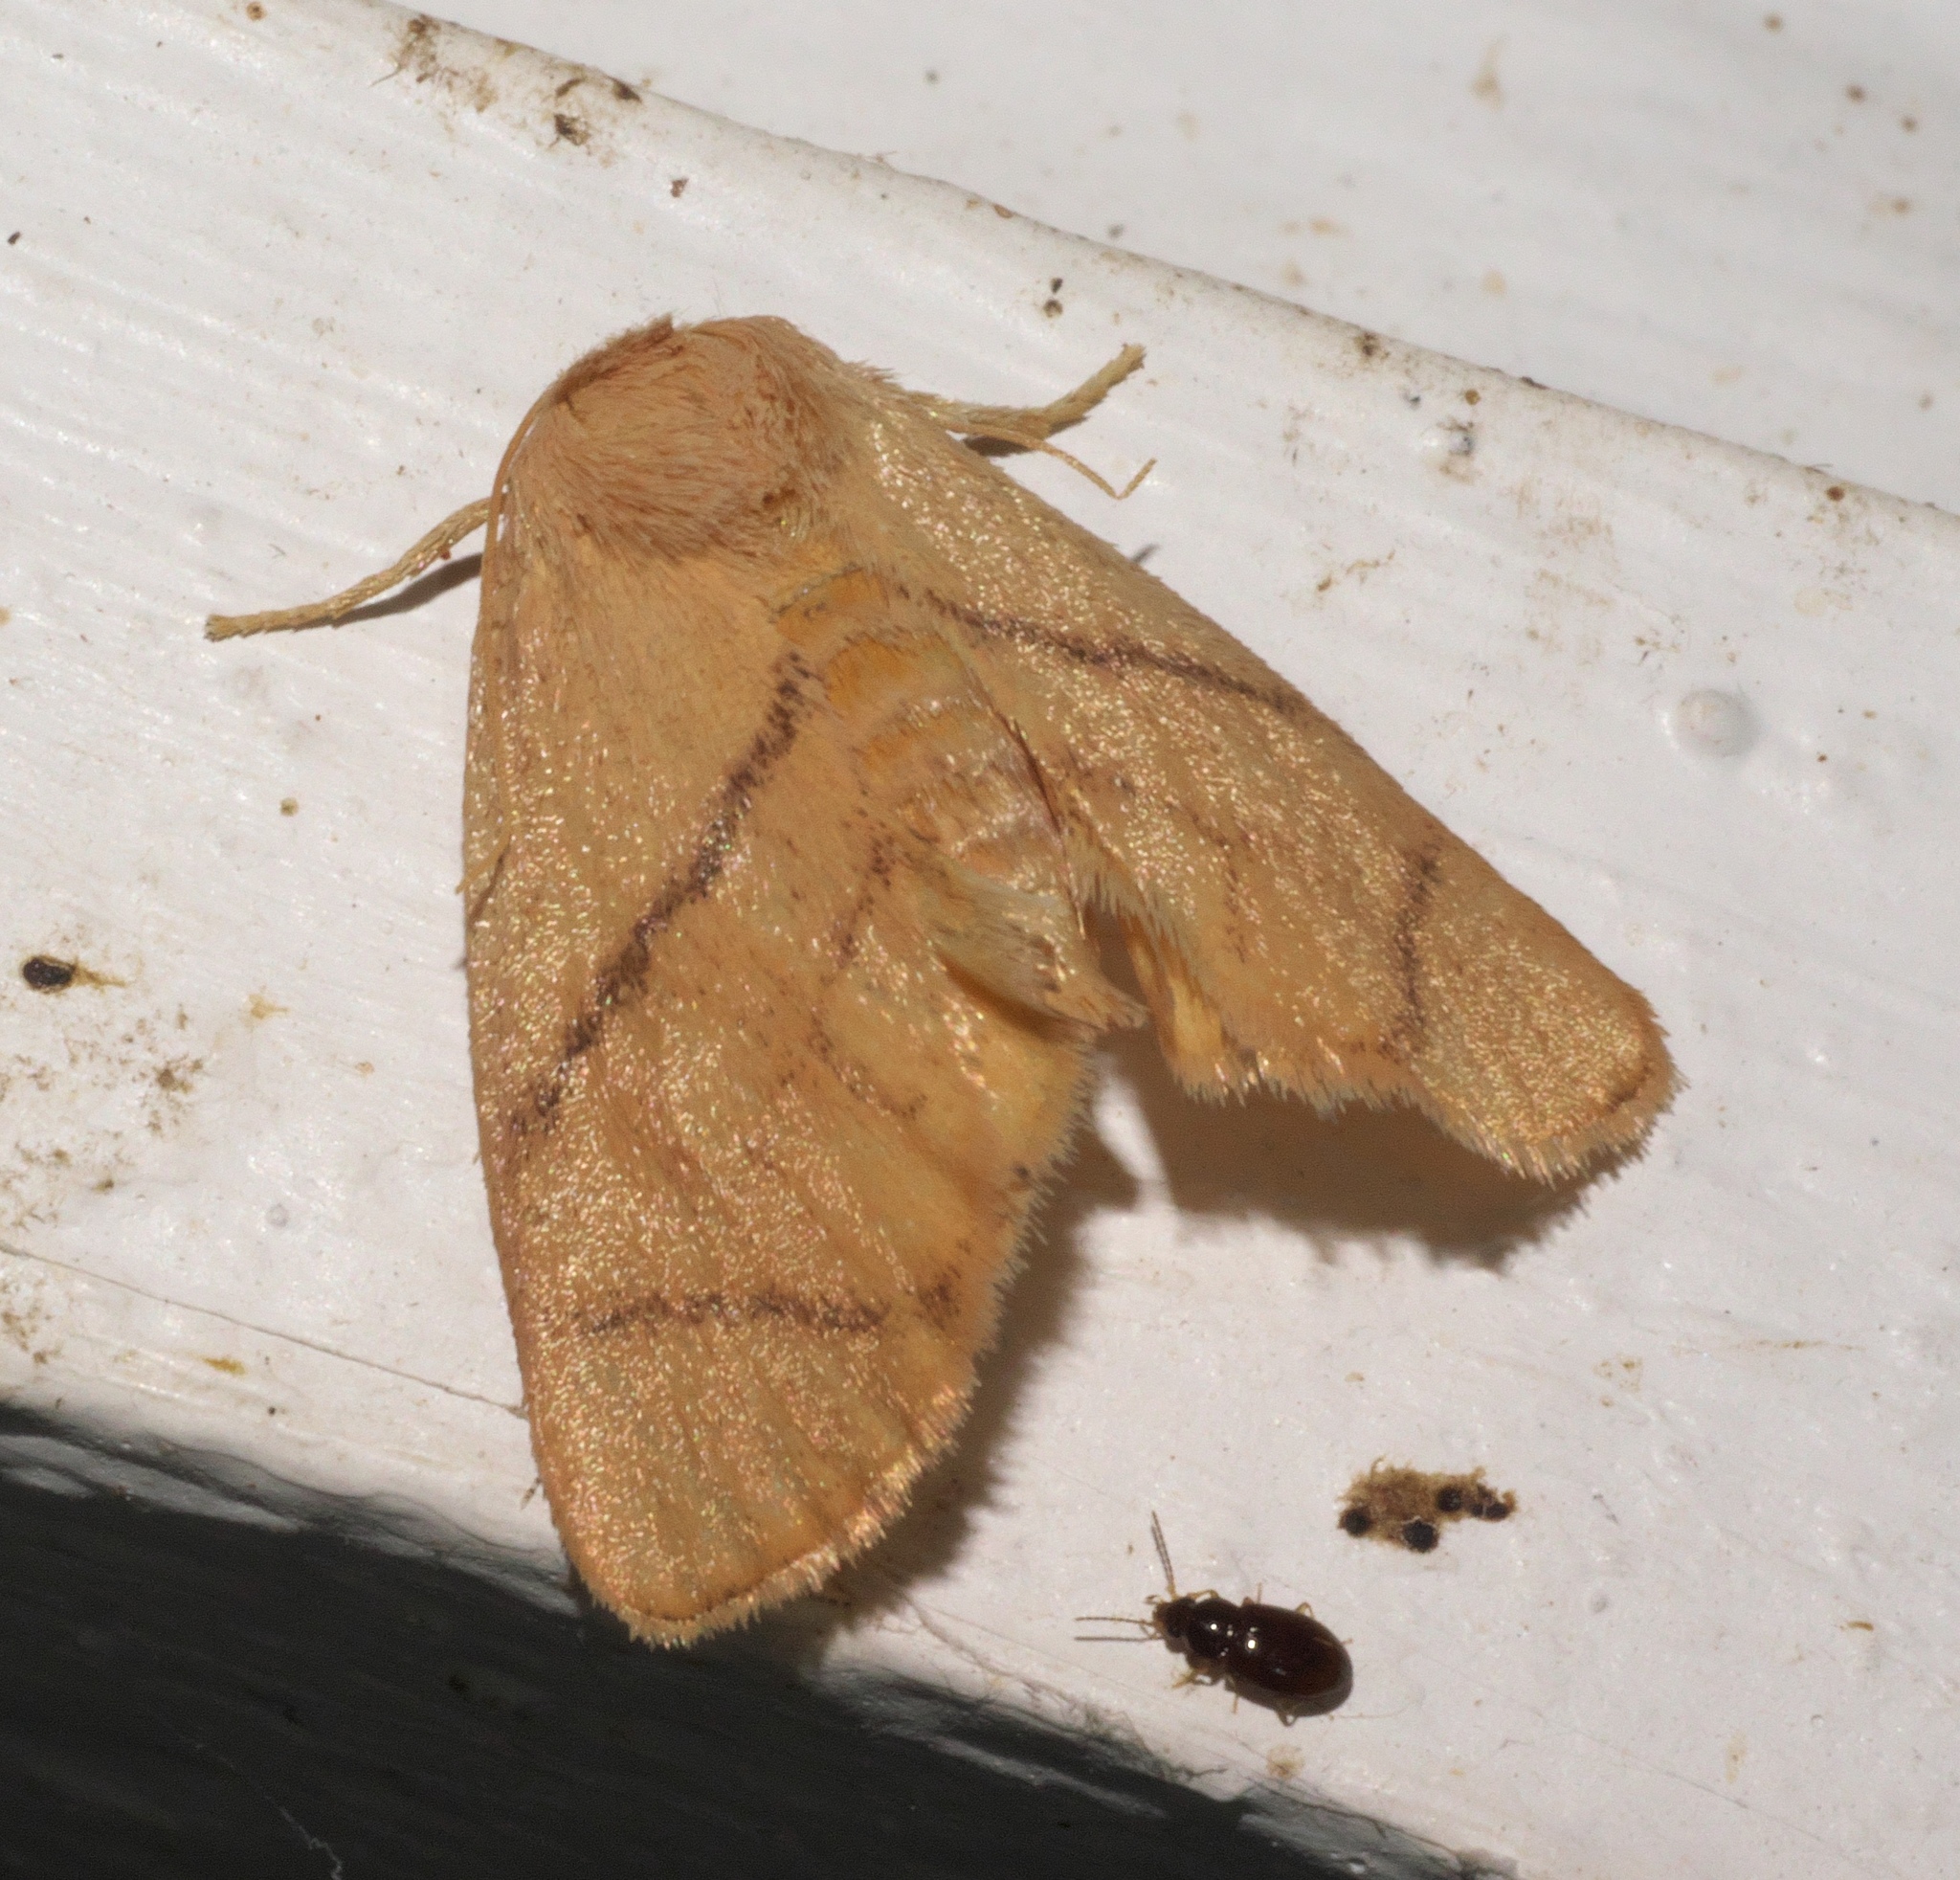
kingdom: Animalia
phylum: Arthropoda
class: Insecta
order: Lepidoptera
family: Limacodidae
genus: Apoda
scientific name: Apoda y-inversa
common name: Yellow-collared slug moth
